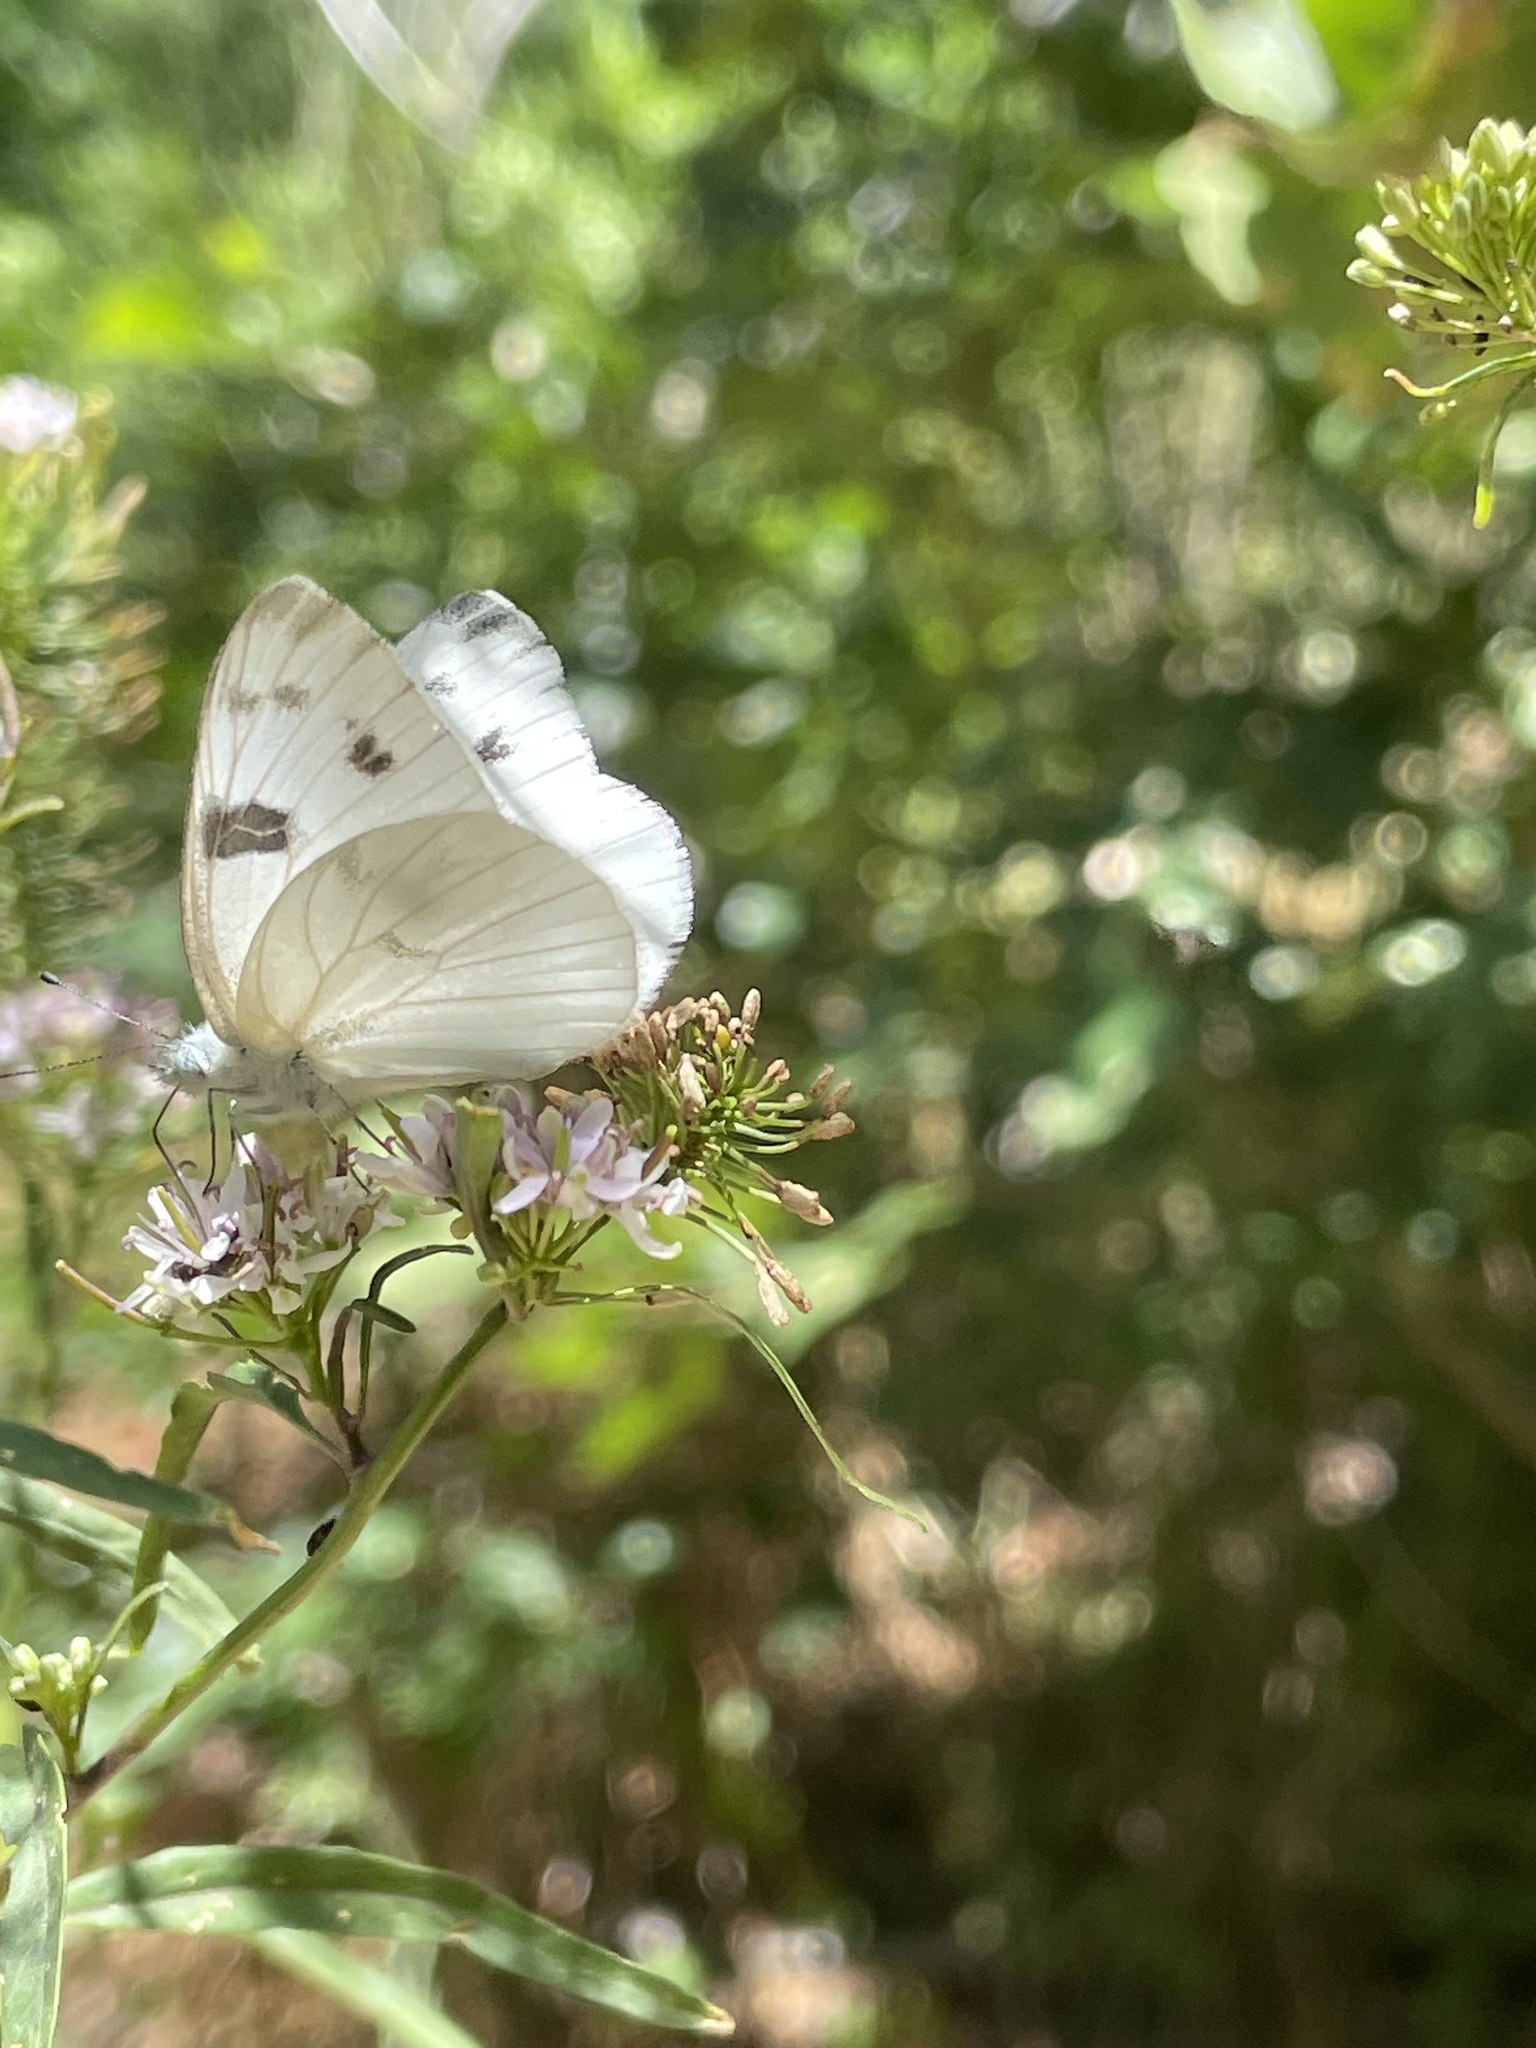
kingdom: Animalia
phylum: Arthropoda
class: Insecta
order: Lepidoptera
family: Pieridae
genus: Pontia
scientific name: Pontia protodice
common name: Checkered white
